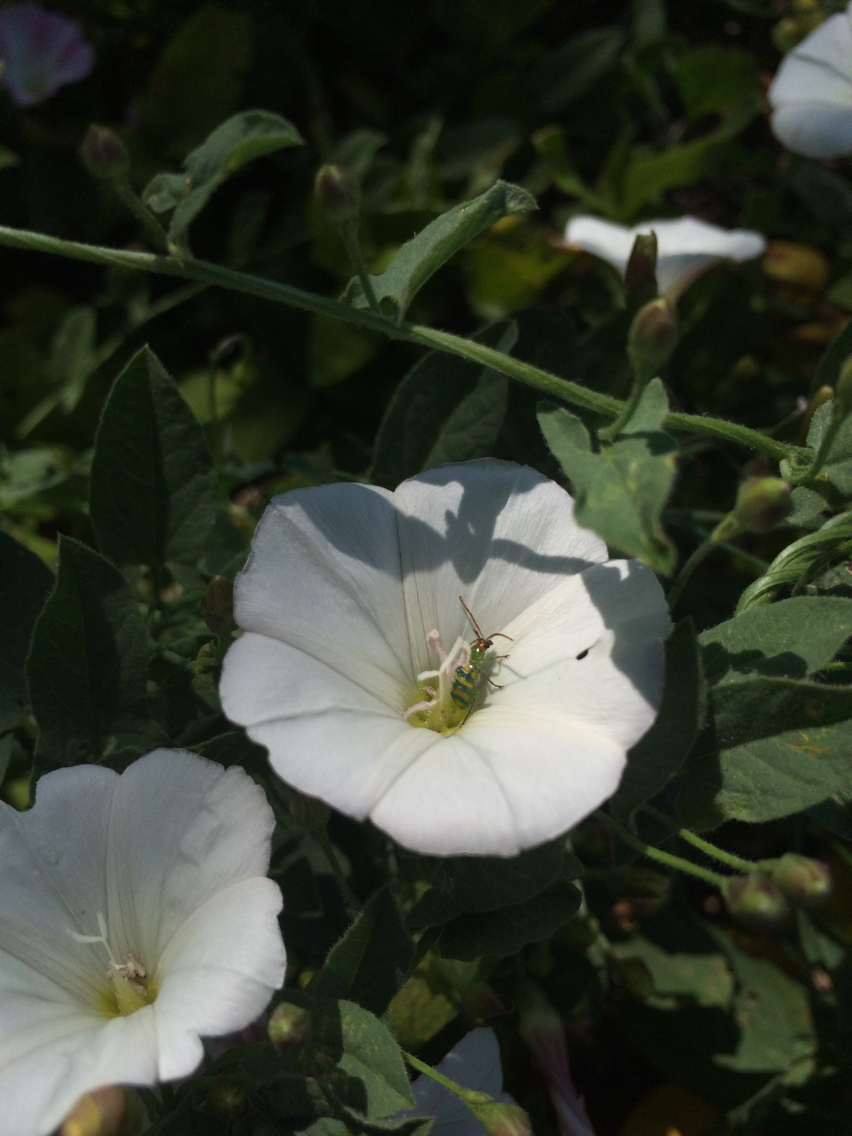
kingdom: Animalia
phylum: Arthropoda
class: Insecta
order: Coleoptera
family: Chrysomelidae
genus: Diabrotica
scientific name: Diabrotica balteata
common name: Leaf beetle
